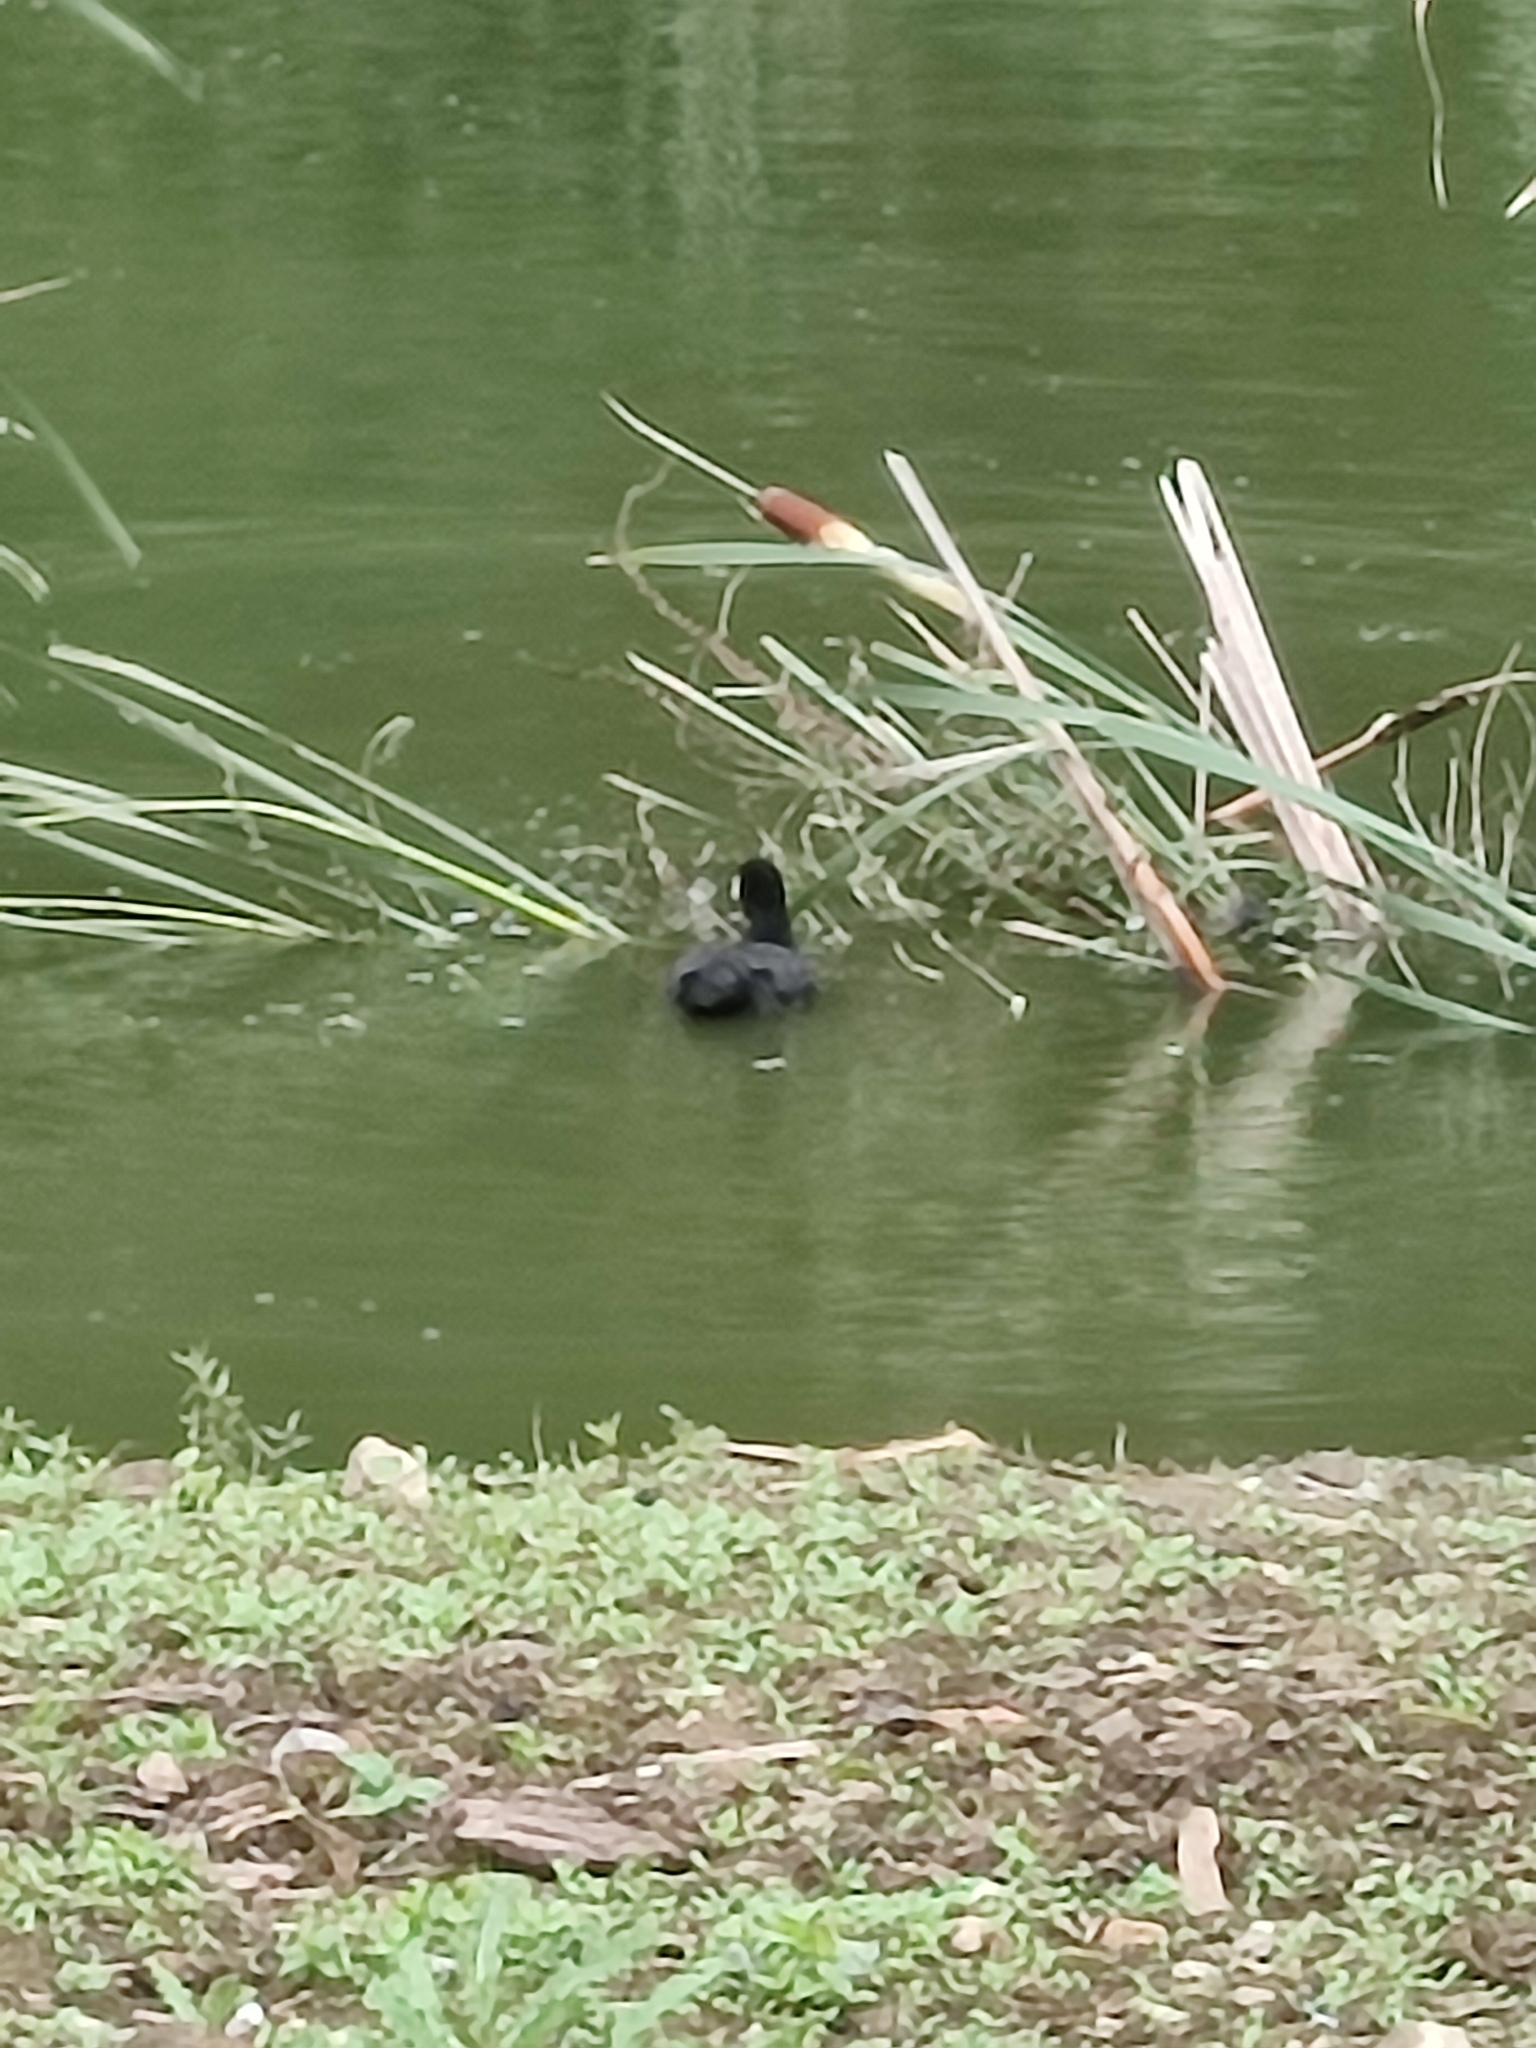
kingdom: Animalia
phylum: Chordata
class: Aves
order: Gruiformes
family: Rallidae
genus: Fulica
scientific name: Fulica atra
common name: Eurasian coot
